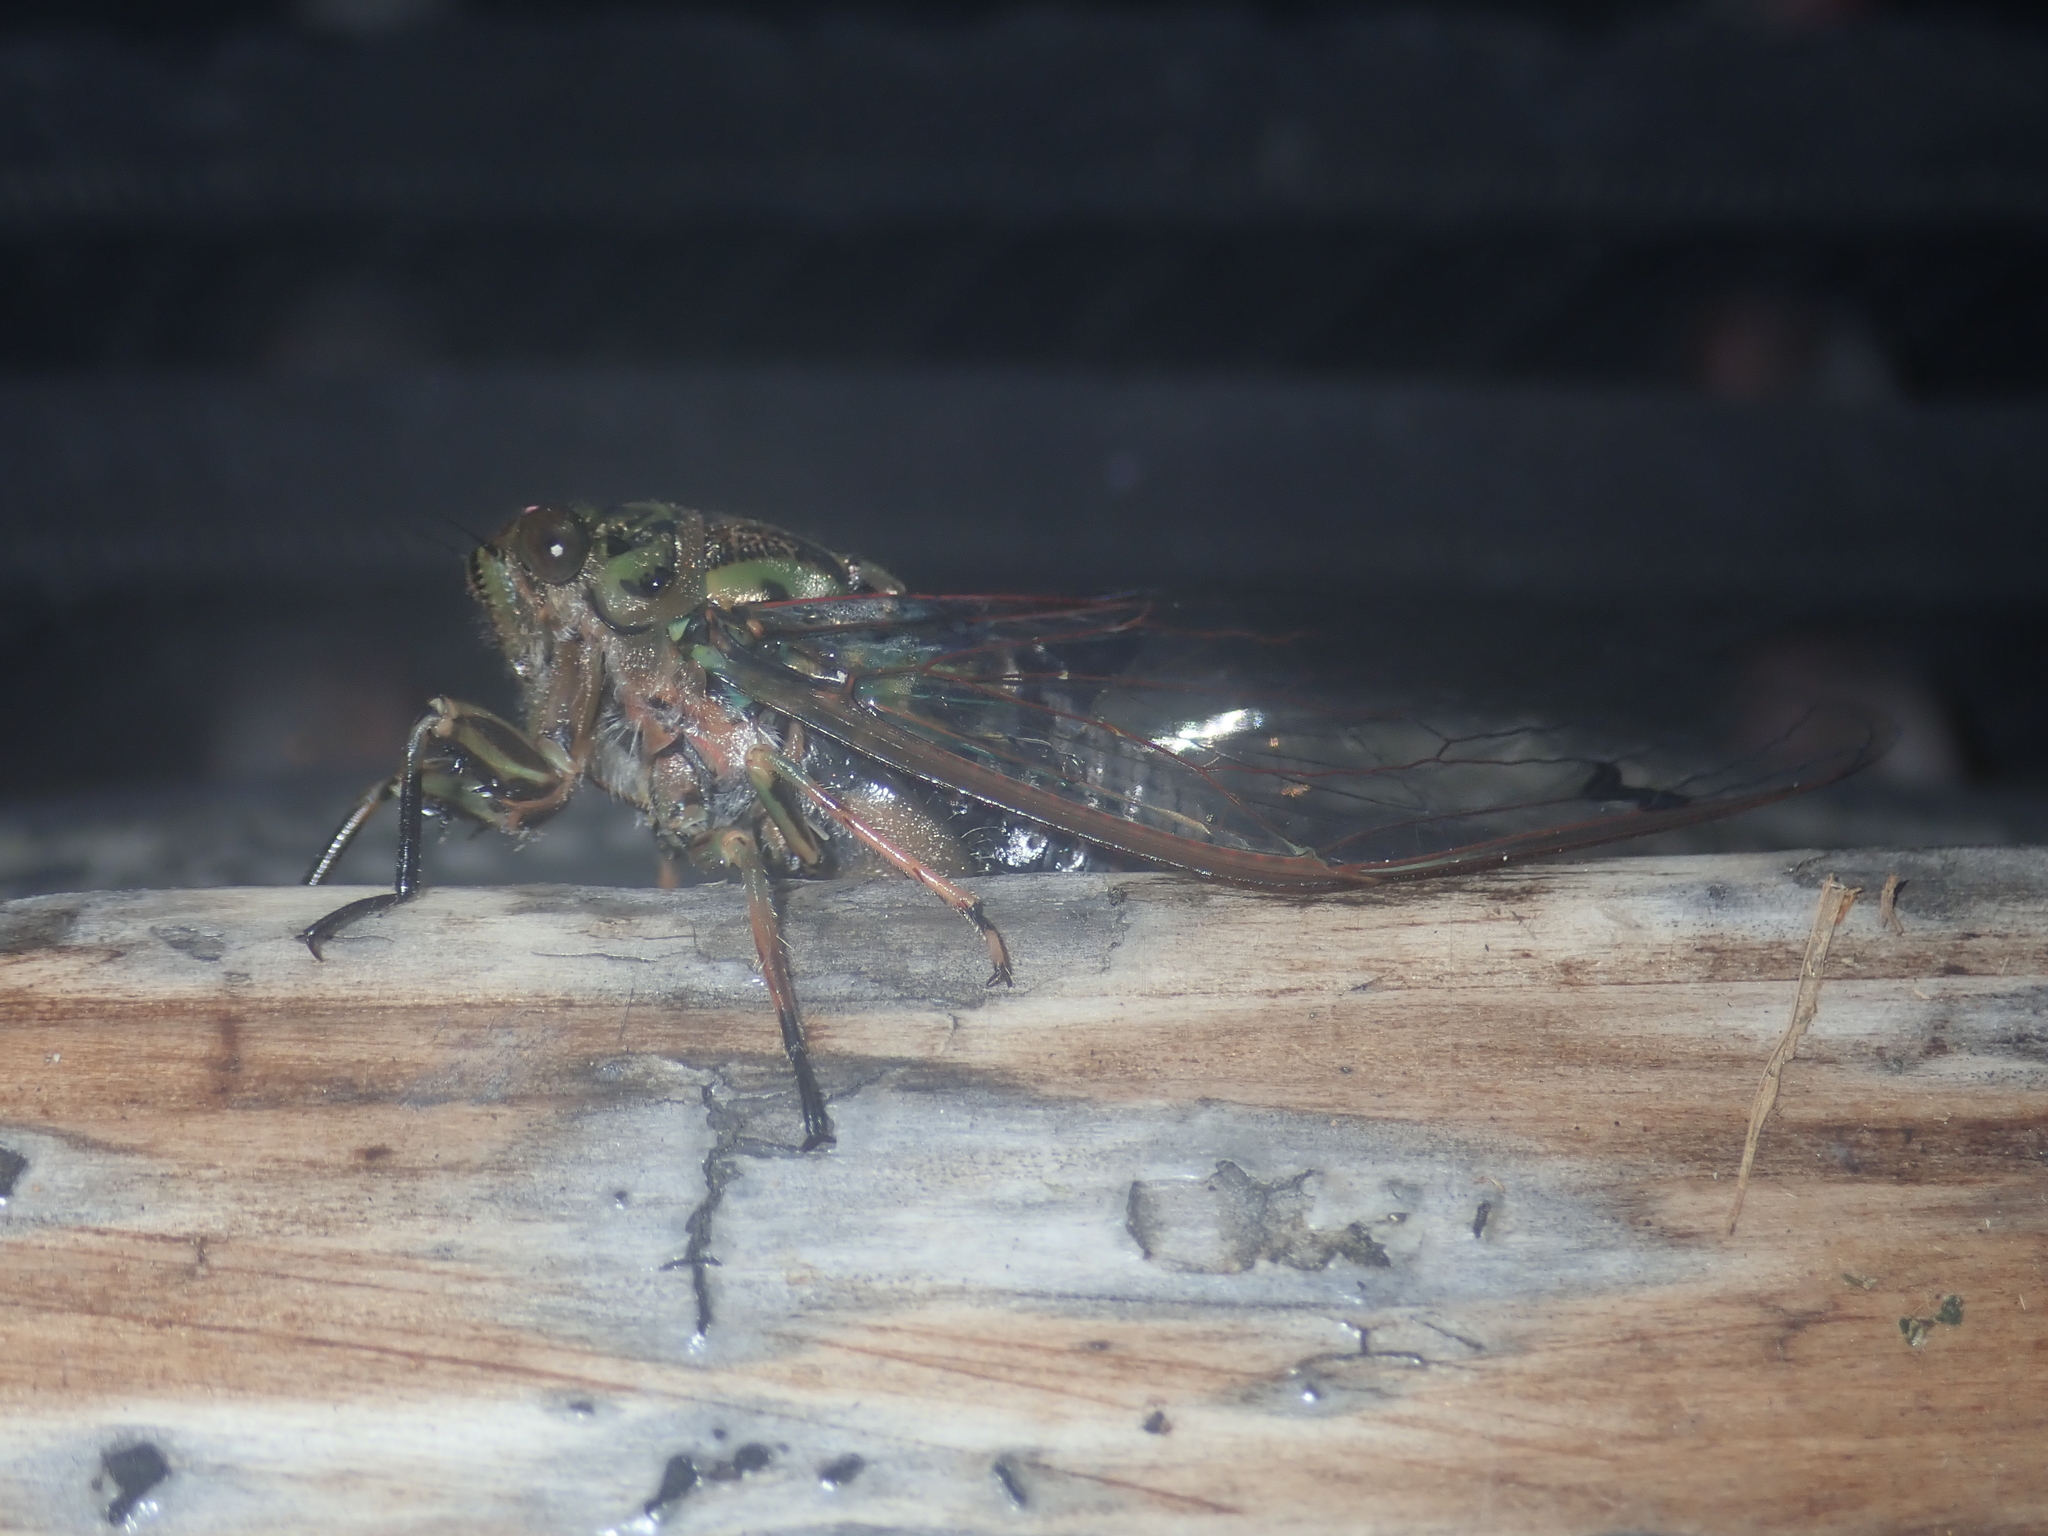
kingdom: Animalia
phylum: Arthropoda
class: Insecta
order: Hemiptera
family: Cicadidae
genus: Amphipsalta
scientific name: Amphipsalta zelandica
